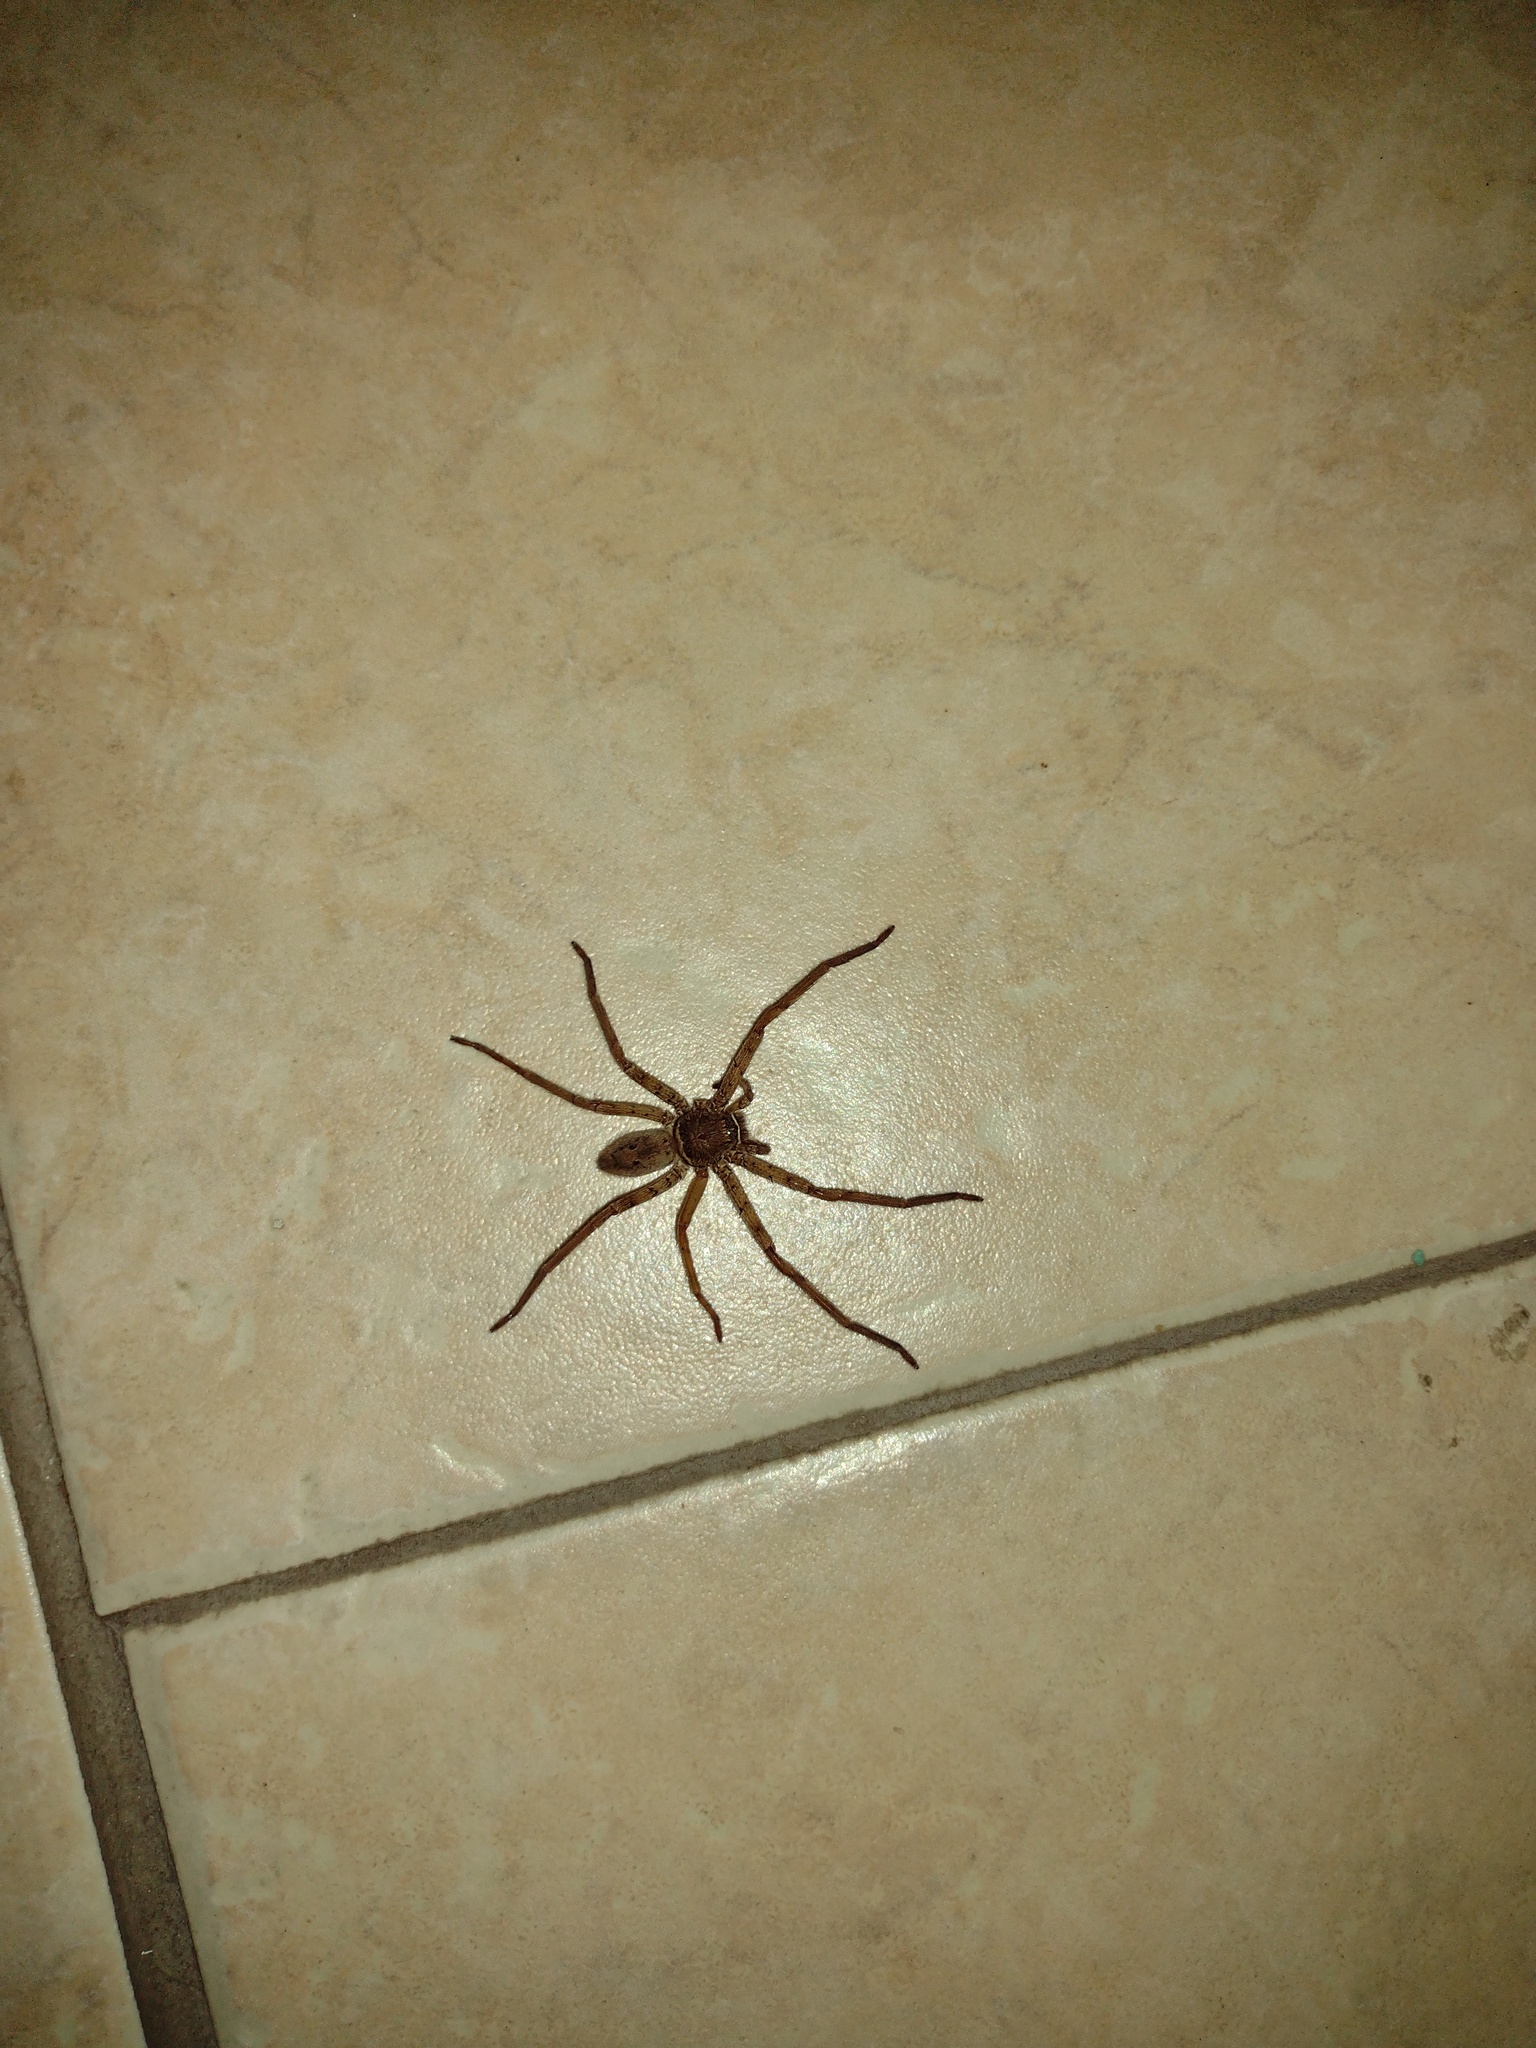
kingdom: Animalia
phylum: Arthropoda
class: Arachnida
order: Araneae
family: Sparassidae
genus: Heteropoda
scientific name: Heteropoda venatoria
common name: Huntsman spider
